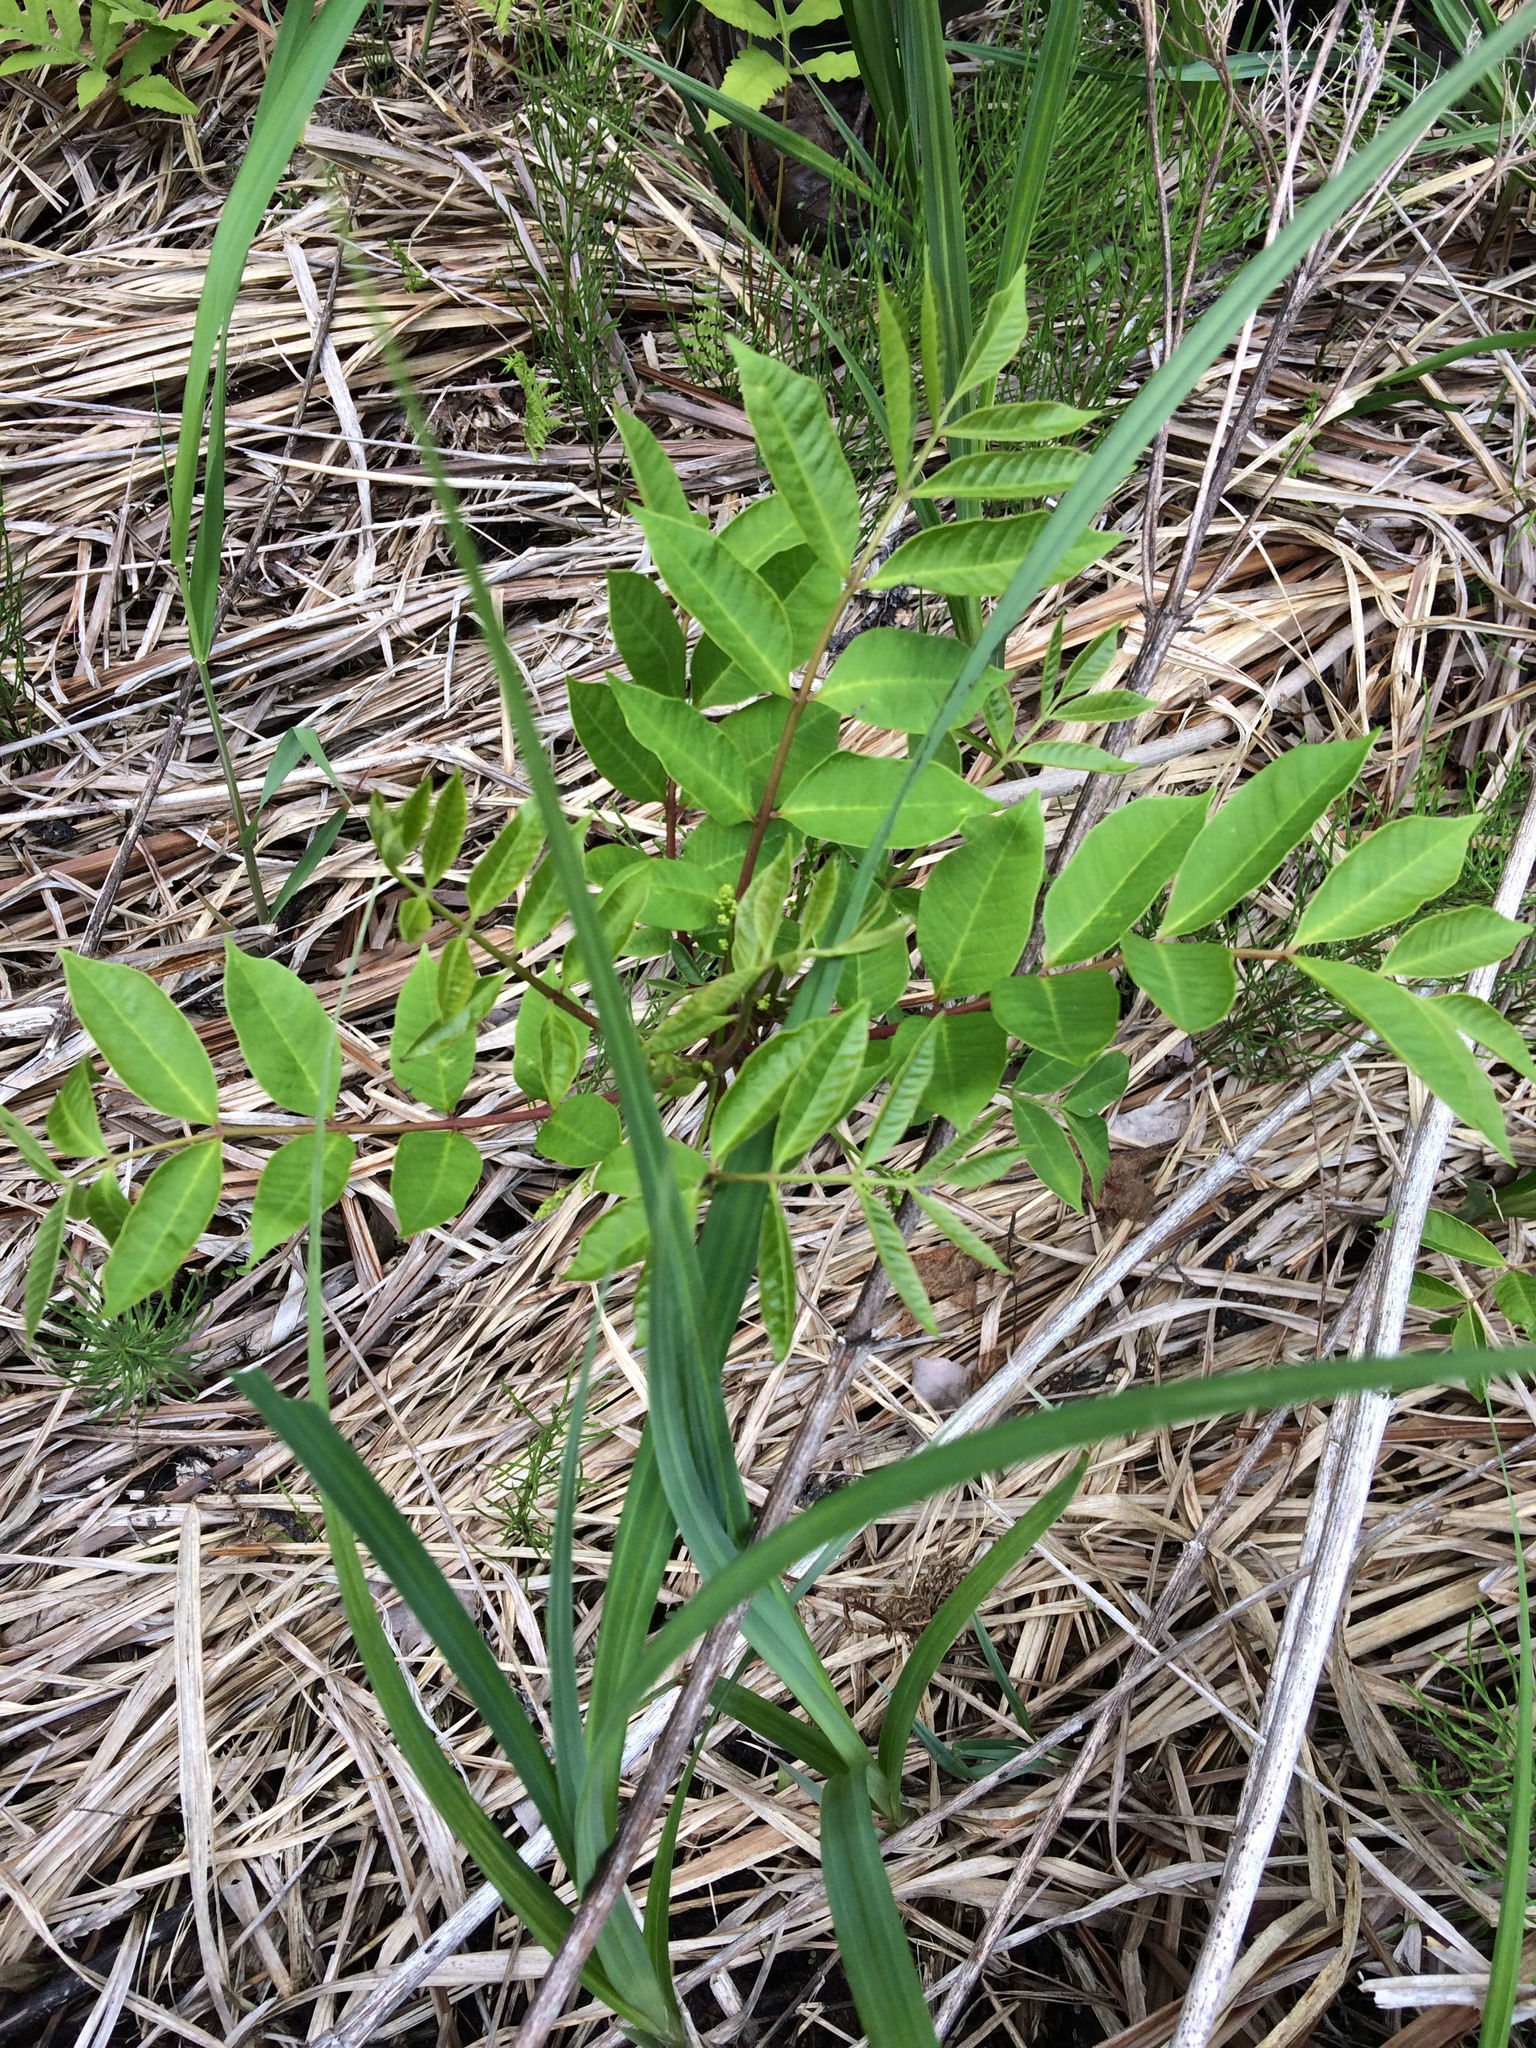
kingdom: Plantae
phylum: Tracheophyta
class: Magnoliopsida
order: Sapindales
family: Anacardiaceae
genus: Toxicodendron
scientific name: Toxicodendron vernix
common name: Poison sumac
